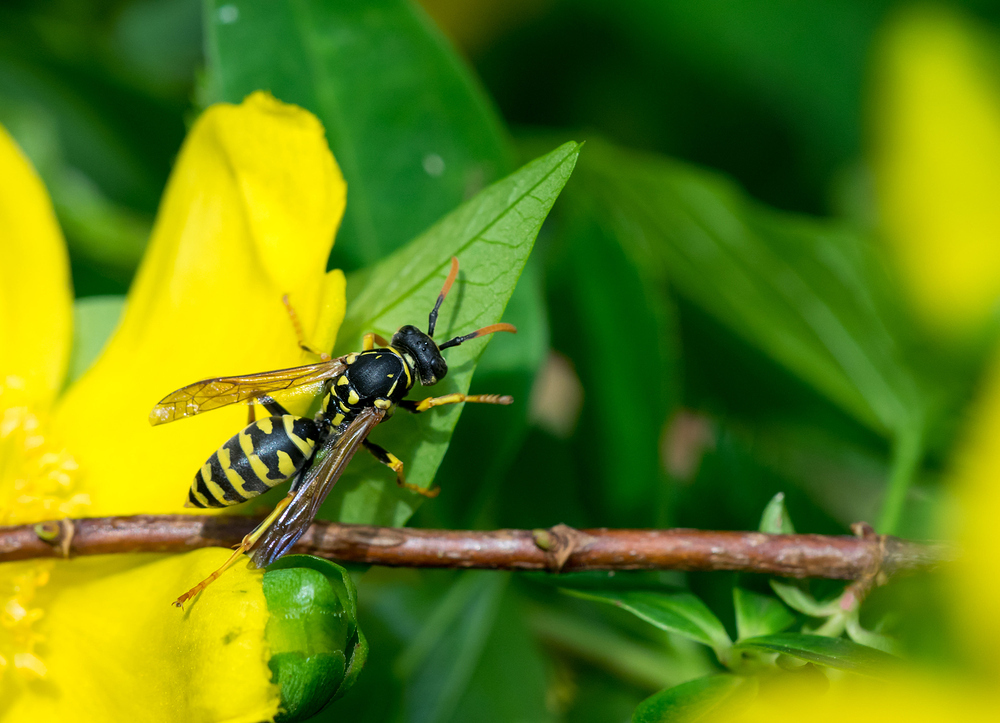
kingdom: Animalia
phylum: Arthropoda
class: Insecta
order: Hymenoptera
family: Eumenidae
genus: Polistes
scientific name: Polistes dominula
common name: Paper wasp
